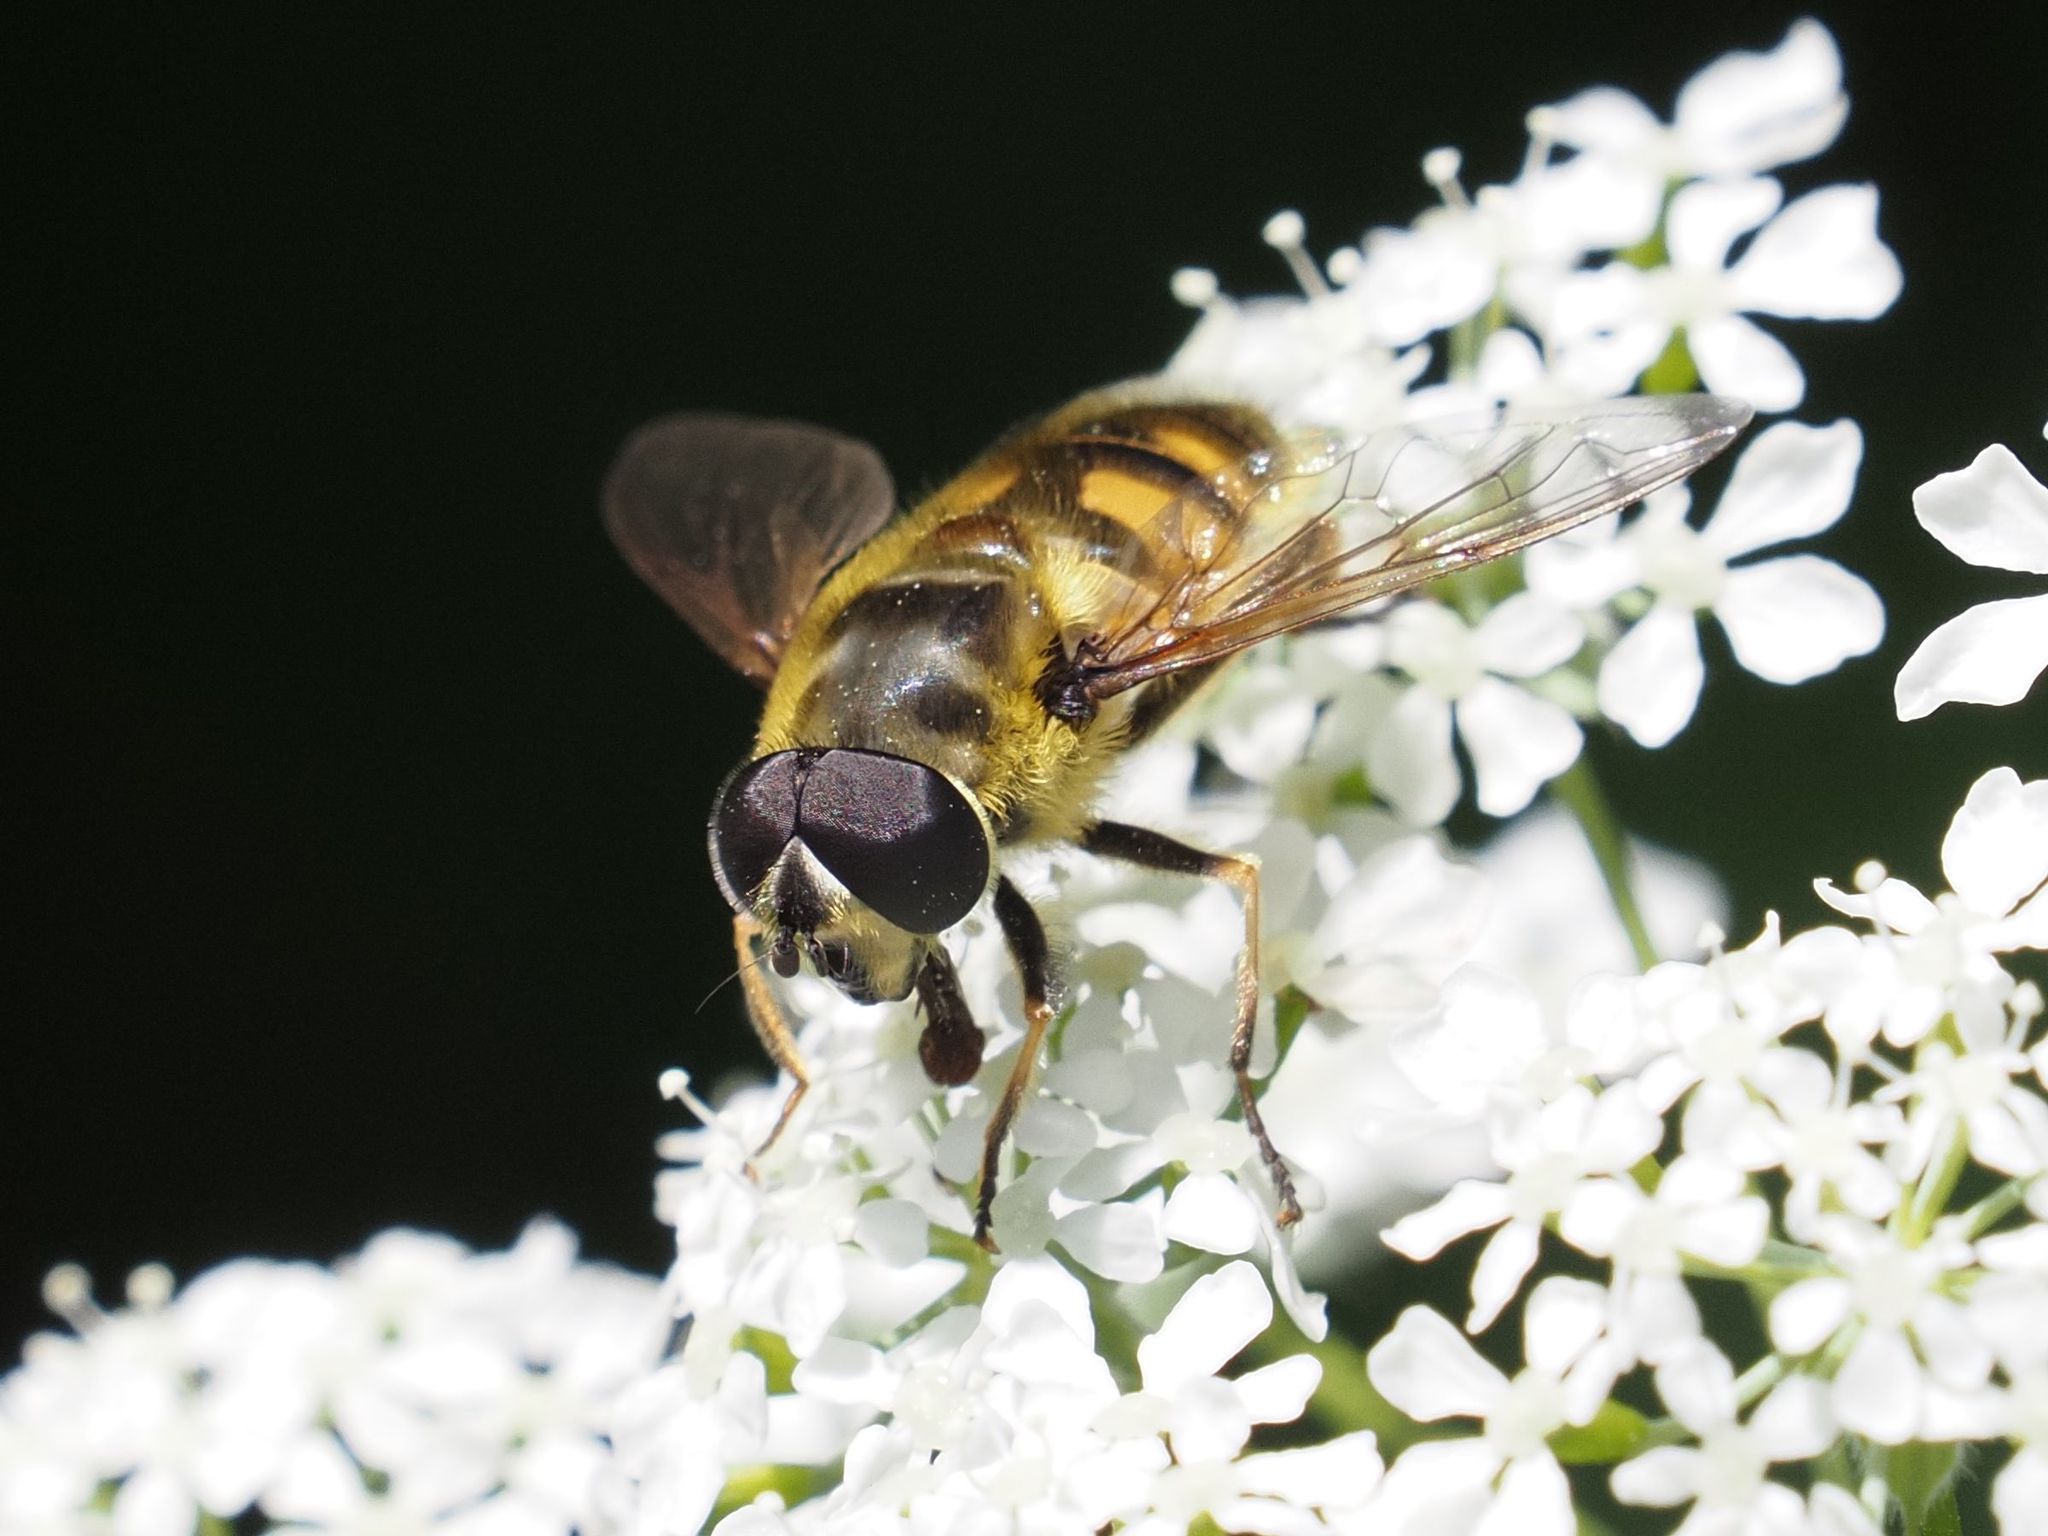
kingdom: Animalia
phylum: Arthropoda
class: Insecta
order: Diptera
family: Syrphidae
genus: Myathropa
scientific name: Myathropa florea
